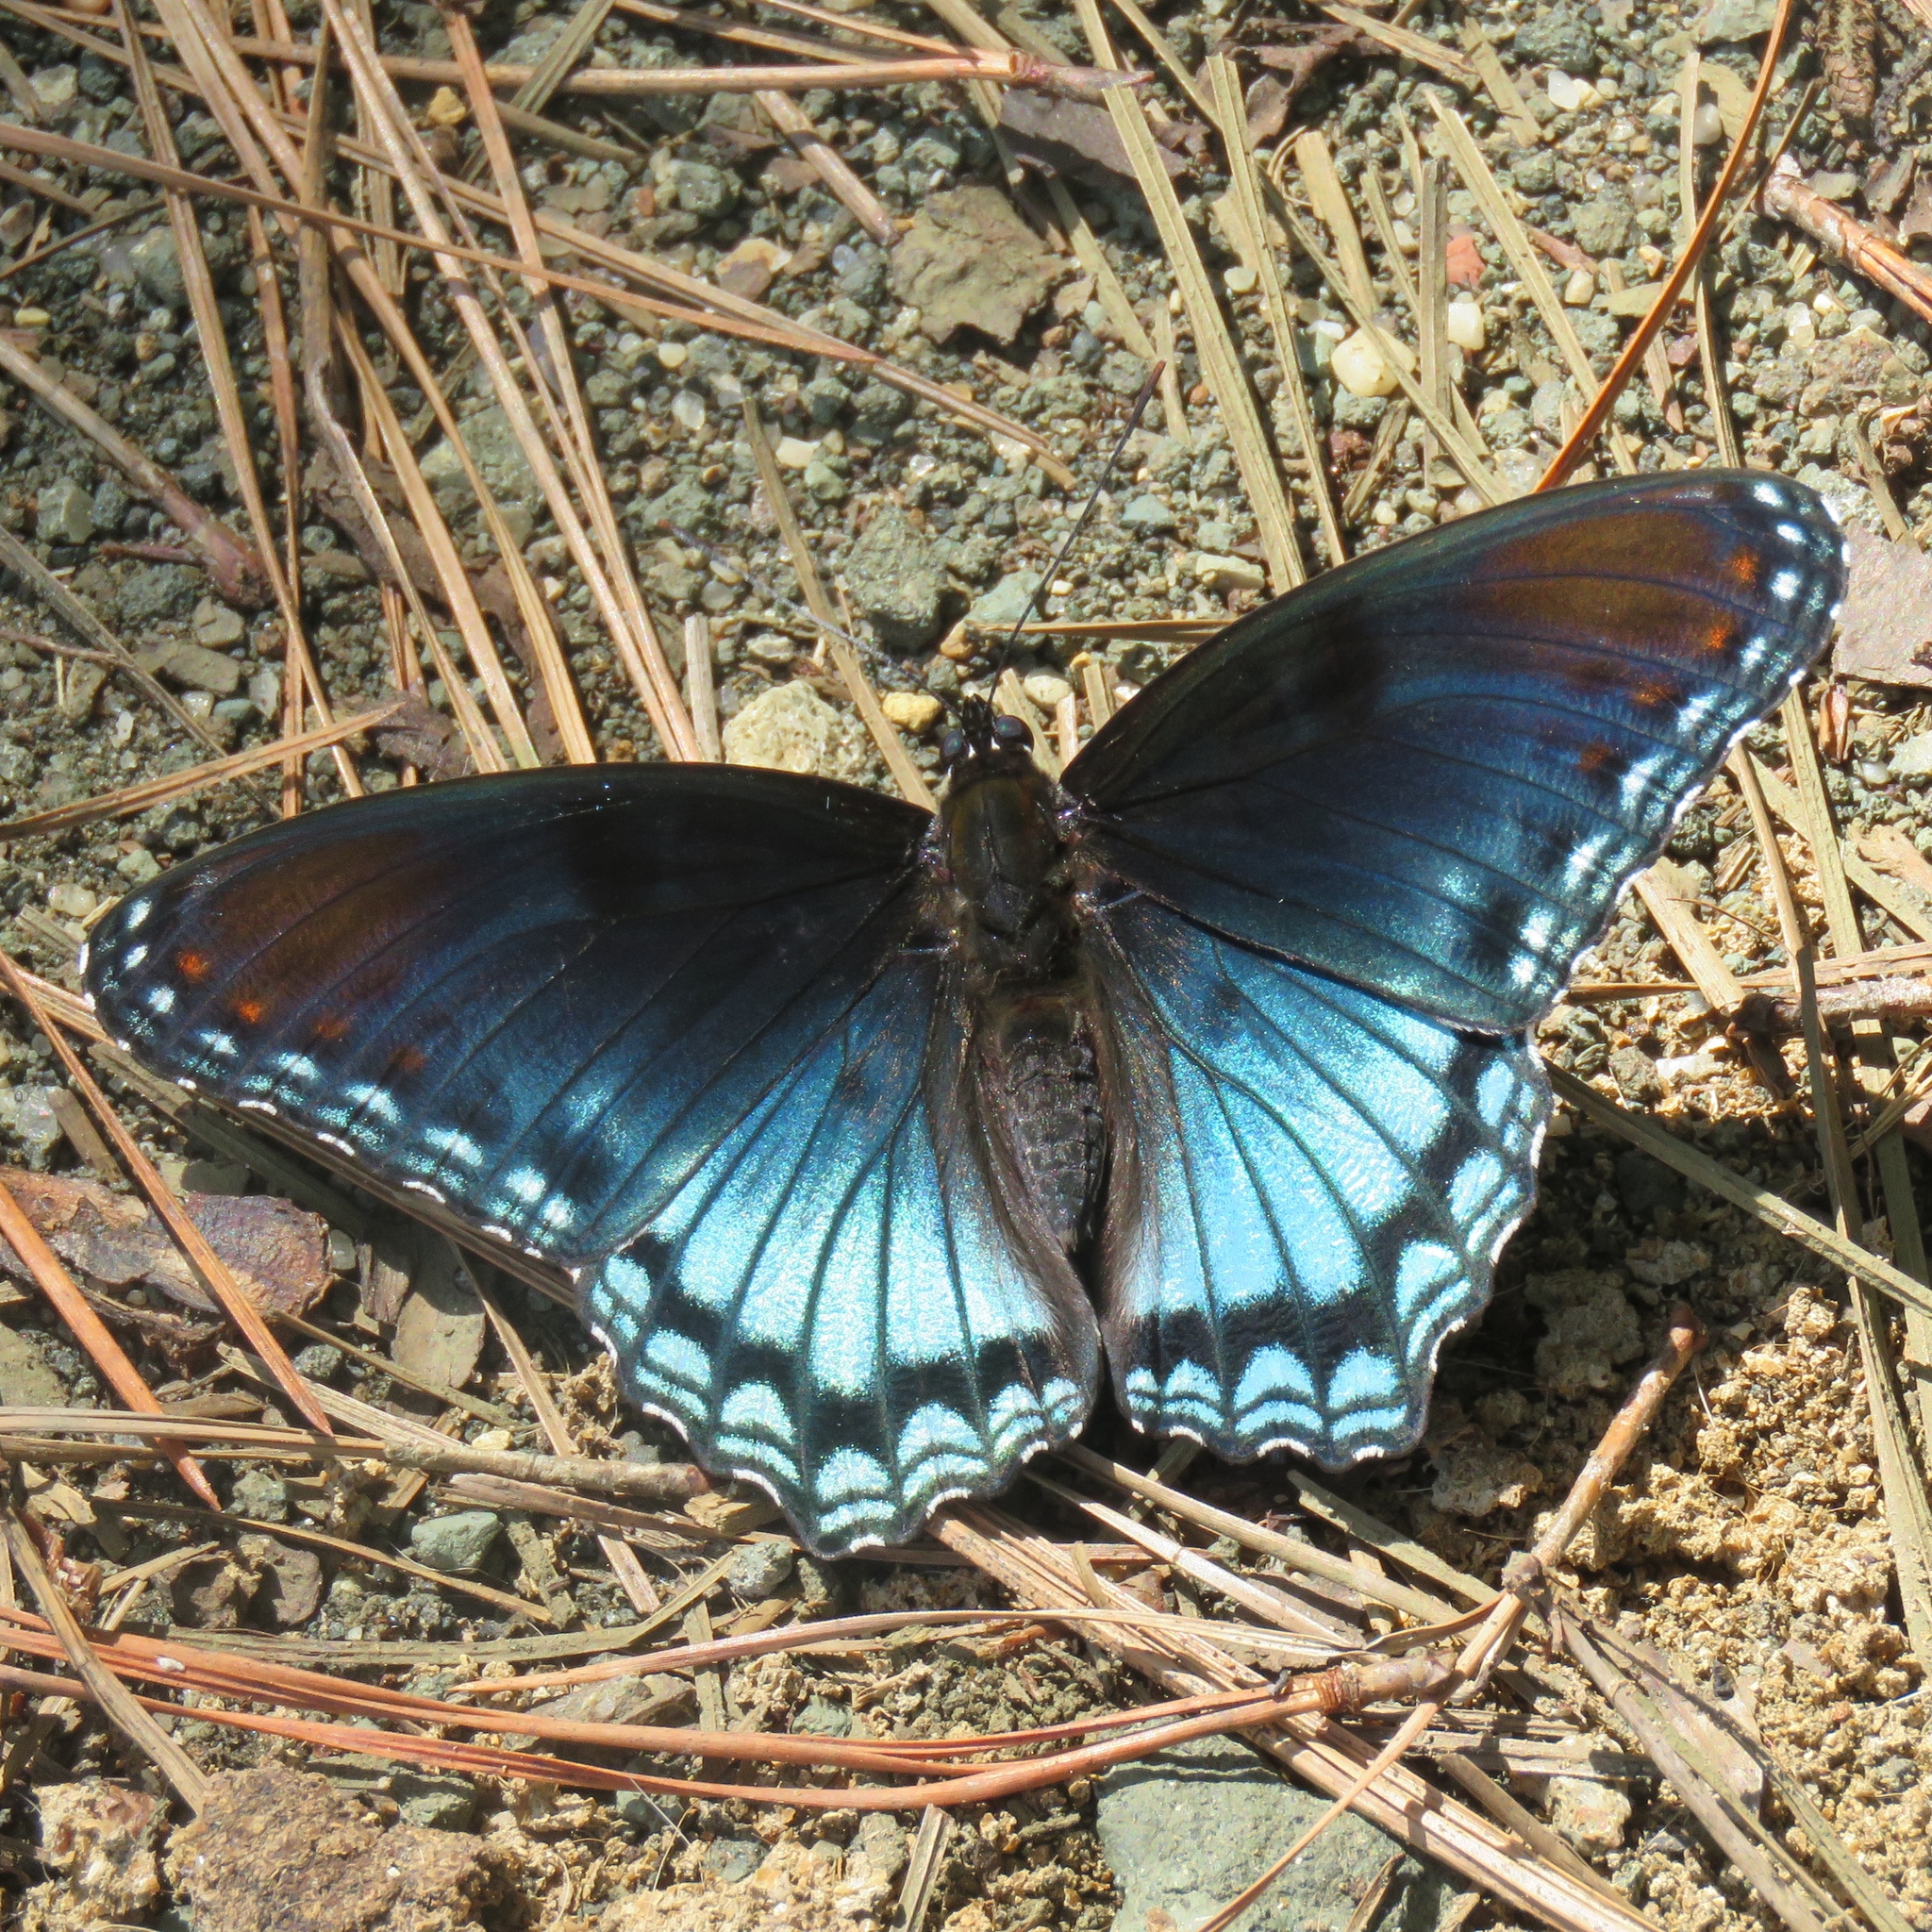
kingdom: Animalia
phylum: Arthropoda
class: Insecta
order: Lepidoptera
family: Nymphalidae
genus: Limenitis
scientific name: Limenitis arthemis
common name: Red-spotted admiral
